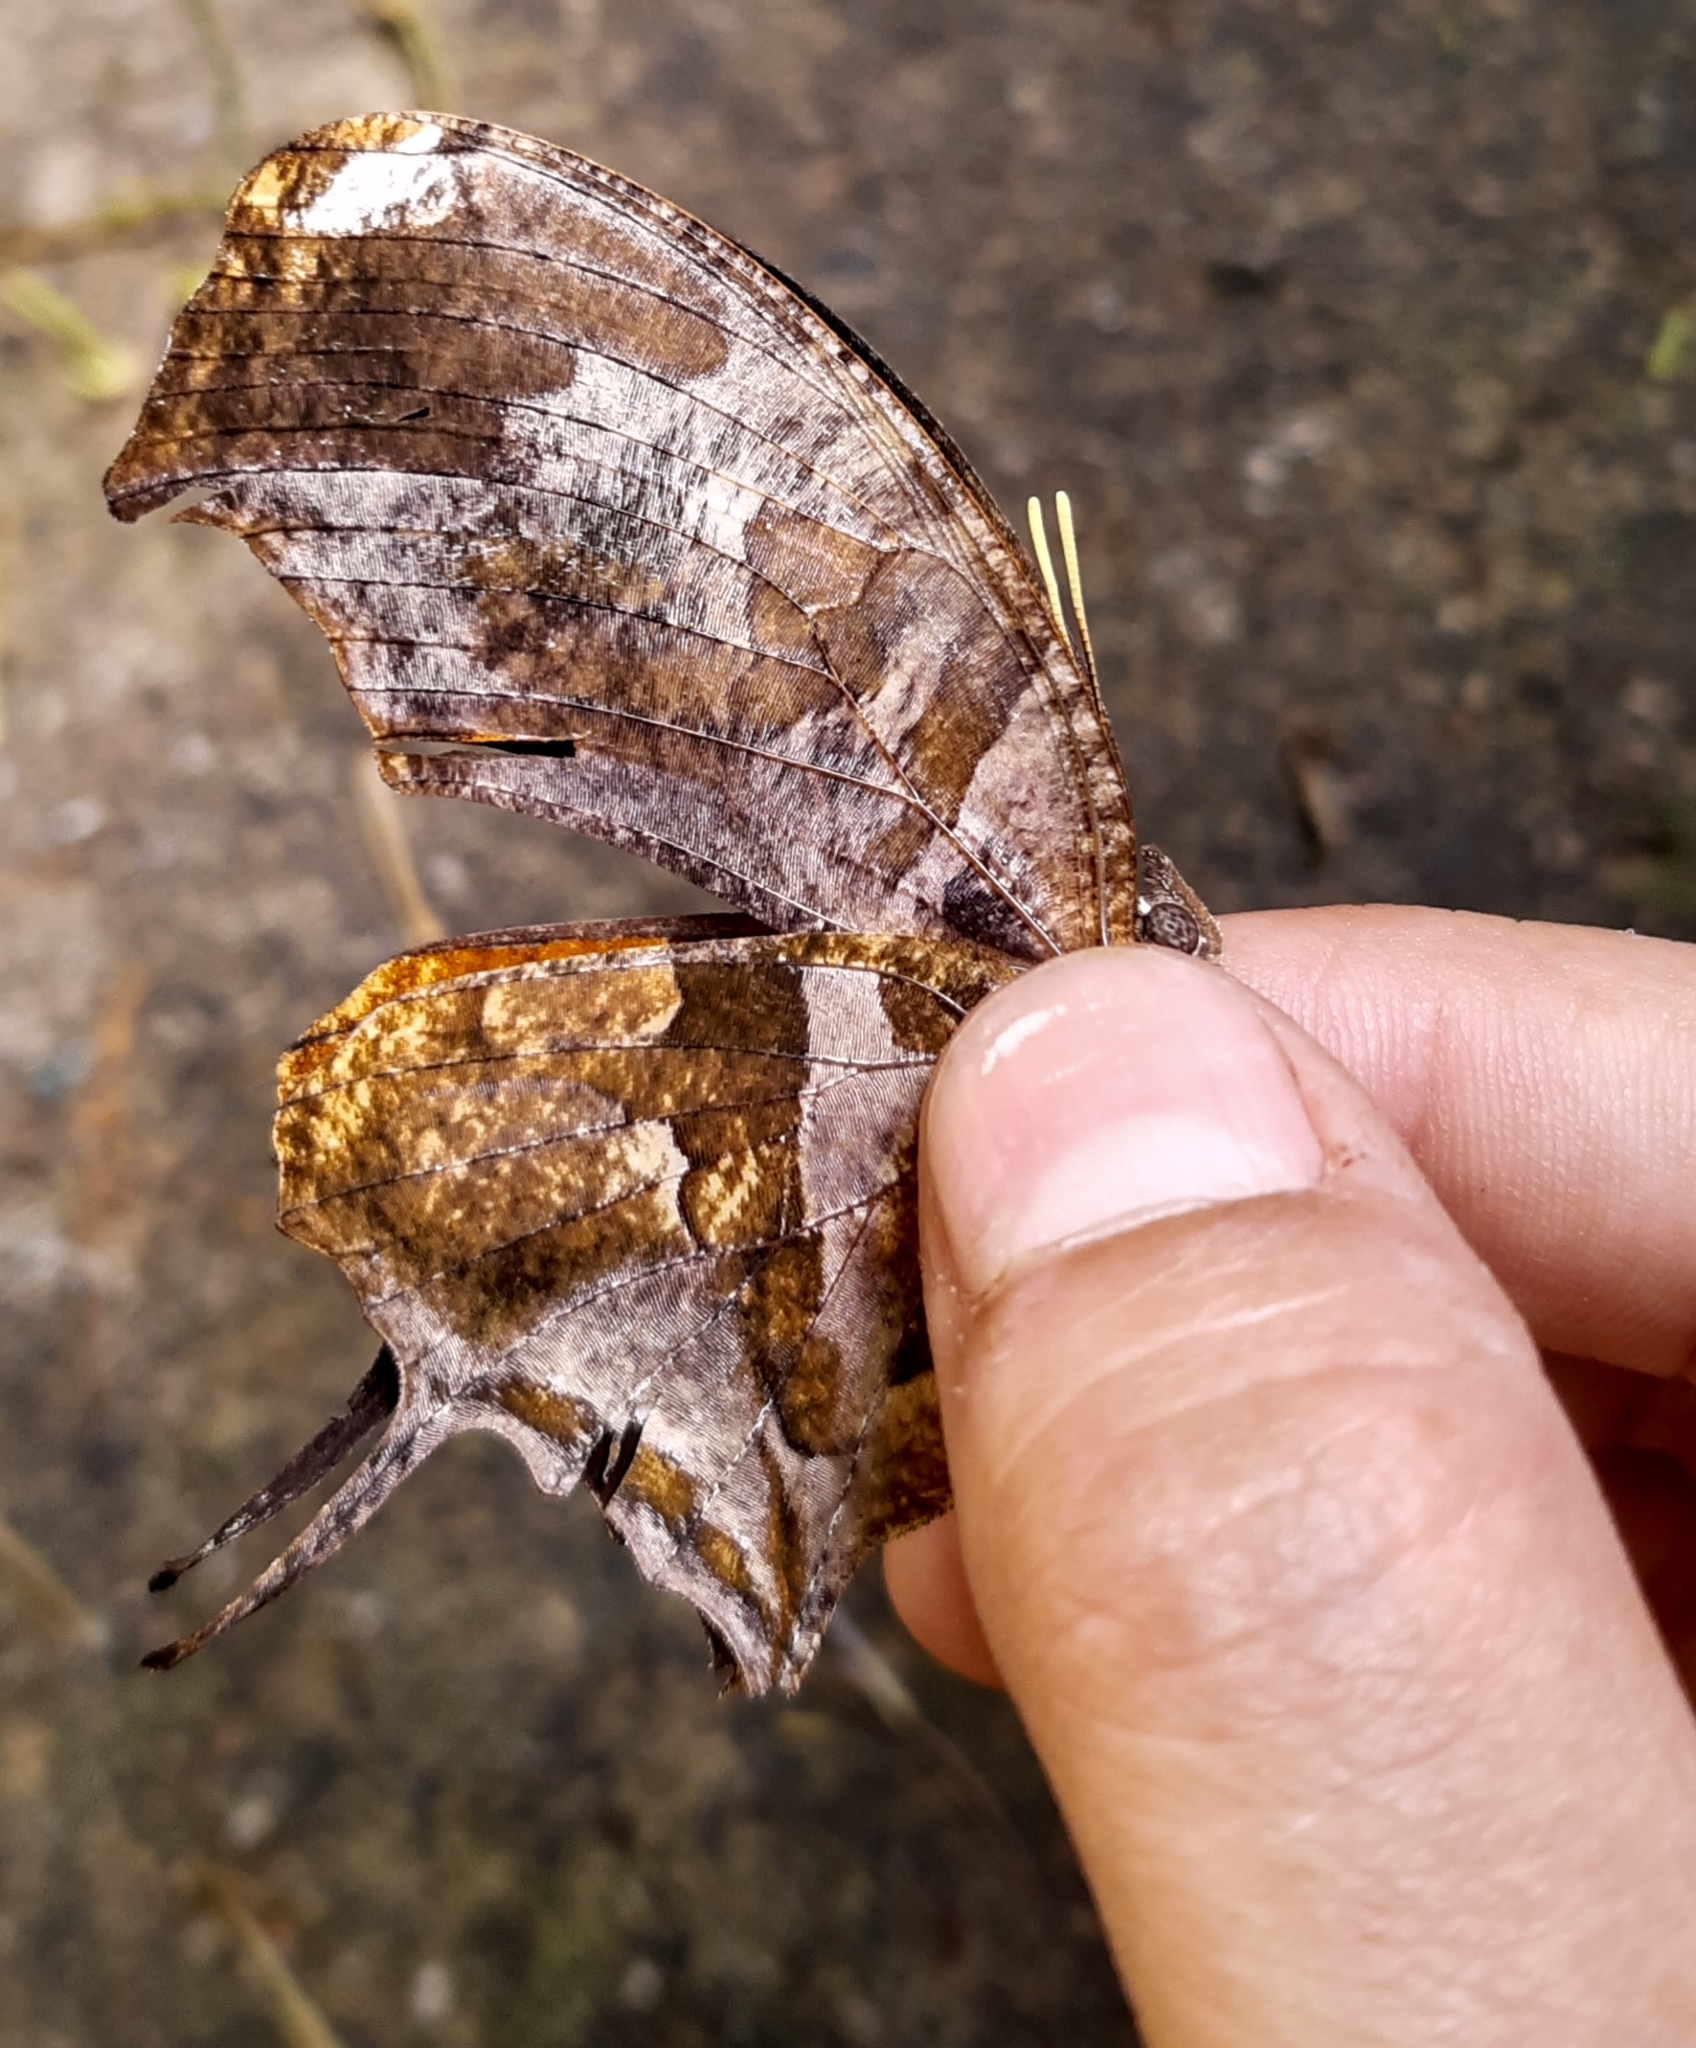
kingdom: Animalia
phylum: Arthropoda
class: Insecta
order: Lepidoptera
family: Nymphalidae
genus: Consul
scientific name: Consul fabius
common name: Tiger leafwing
